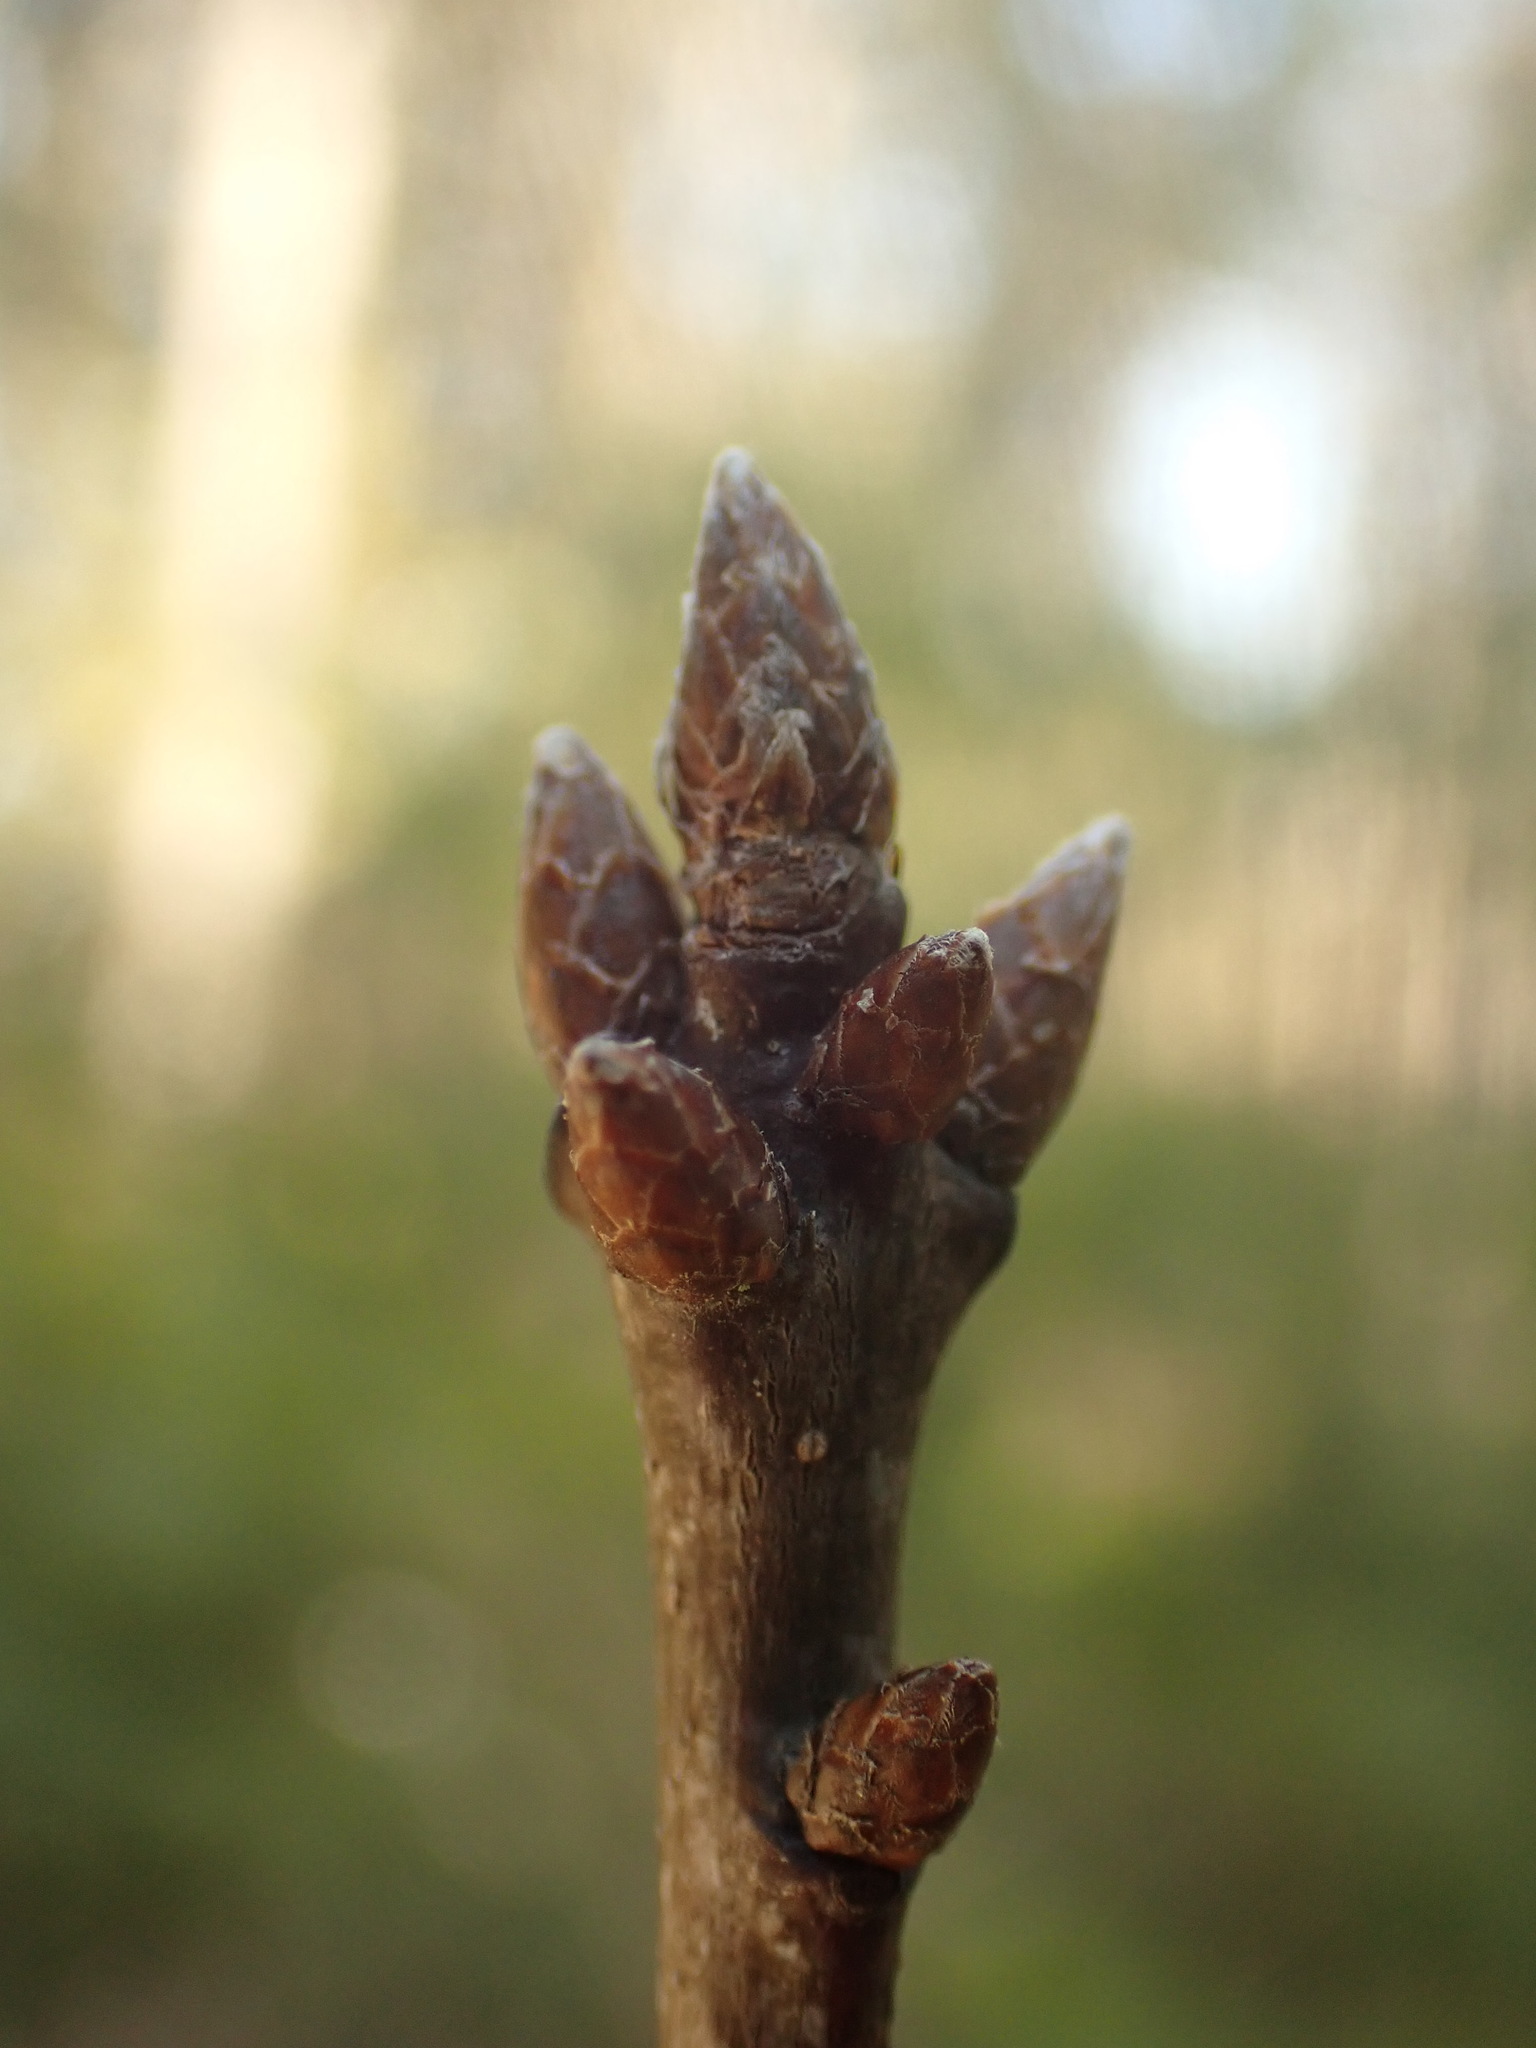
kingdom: Plantae
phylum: Tracheophyta
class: Magnoliopsida
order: Fagales
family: Fagaceae
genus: Quercus
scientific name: Quercus rubra
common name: Red oak
